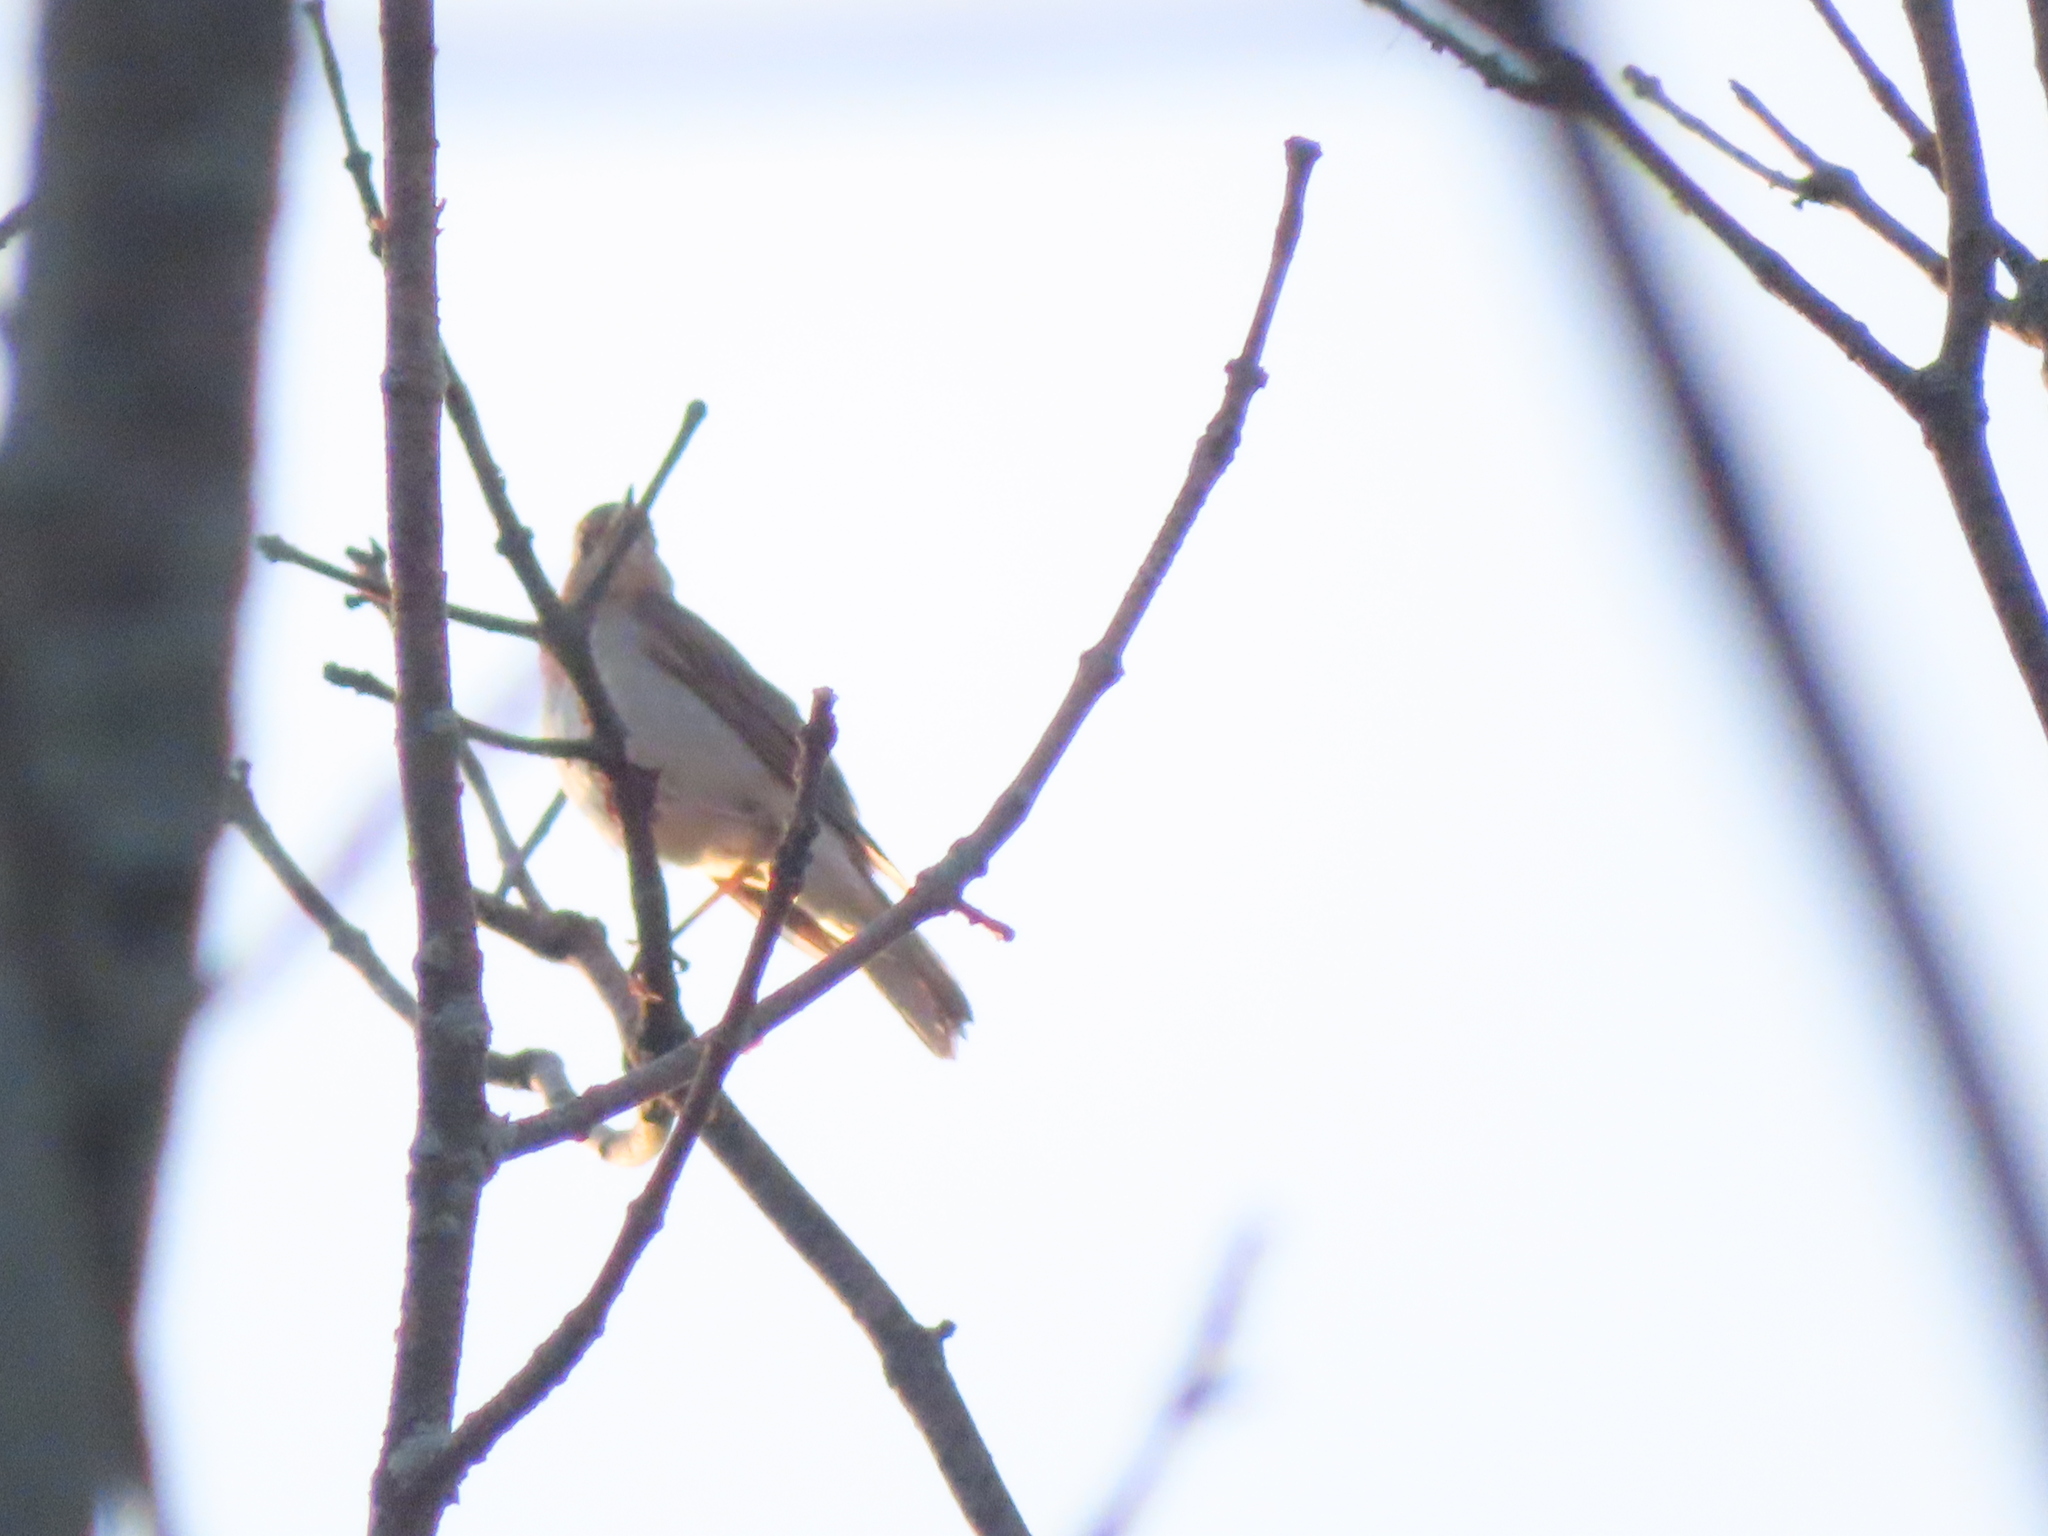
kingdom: Animalia
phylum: Chordata
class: Aves
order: Passeriformes
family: Turdidae
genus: Catharus
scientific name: Catharus fuscescens
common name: Veery
